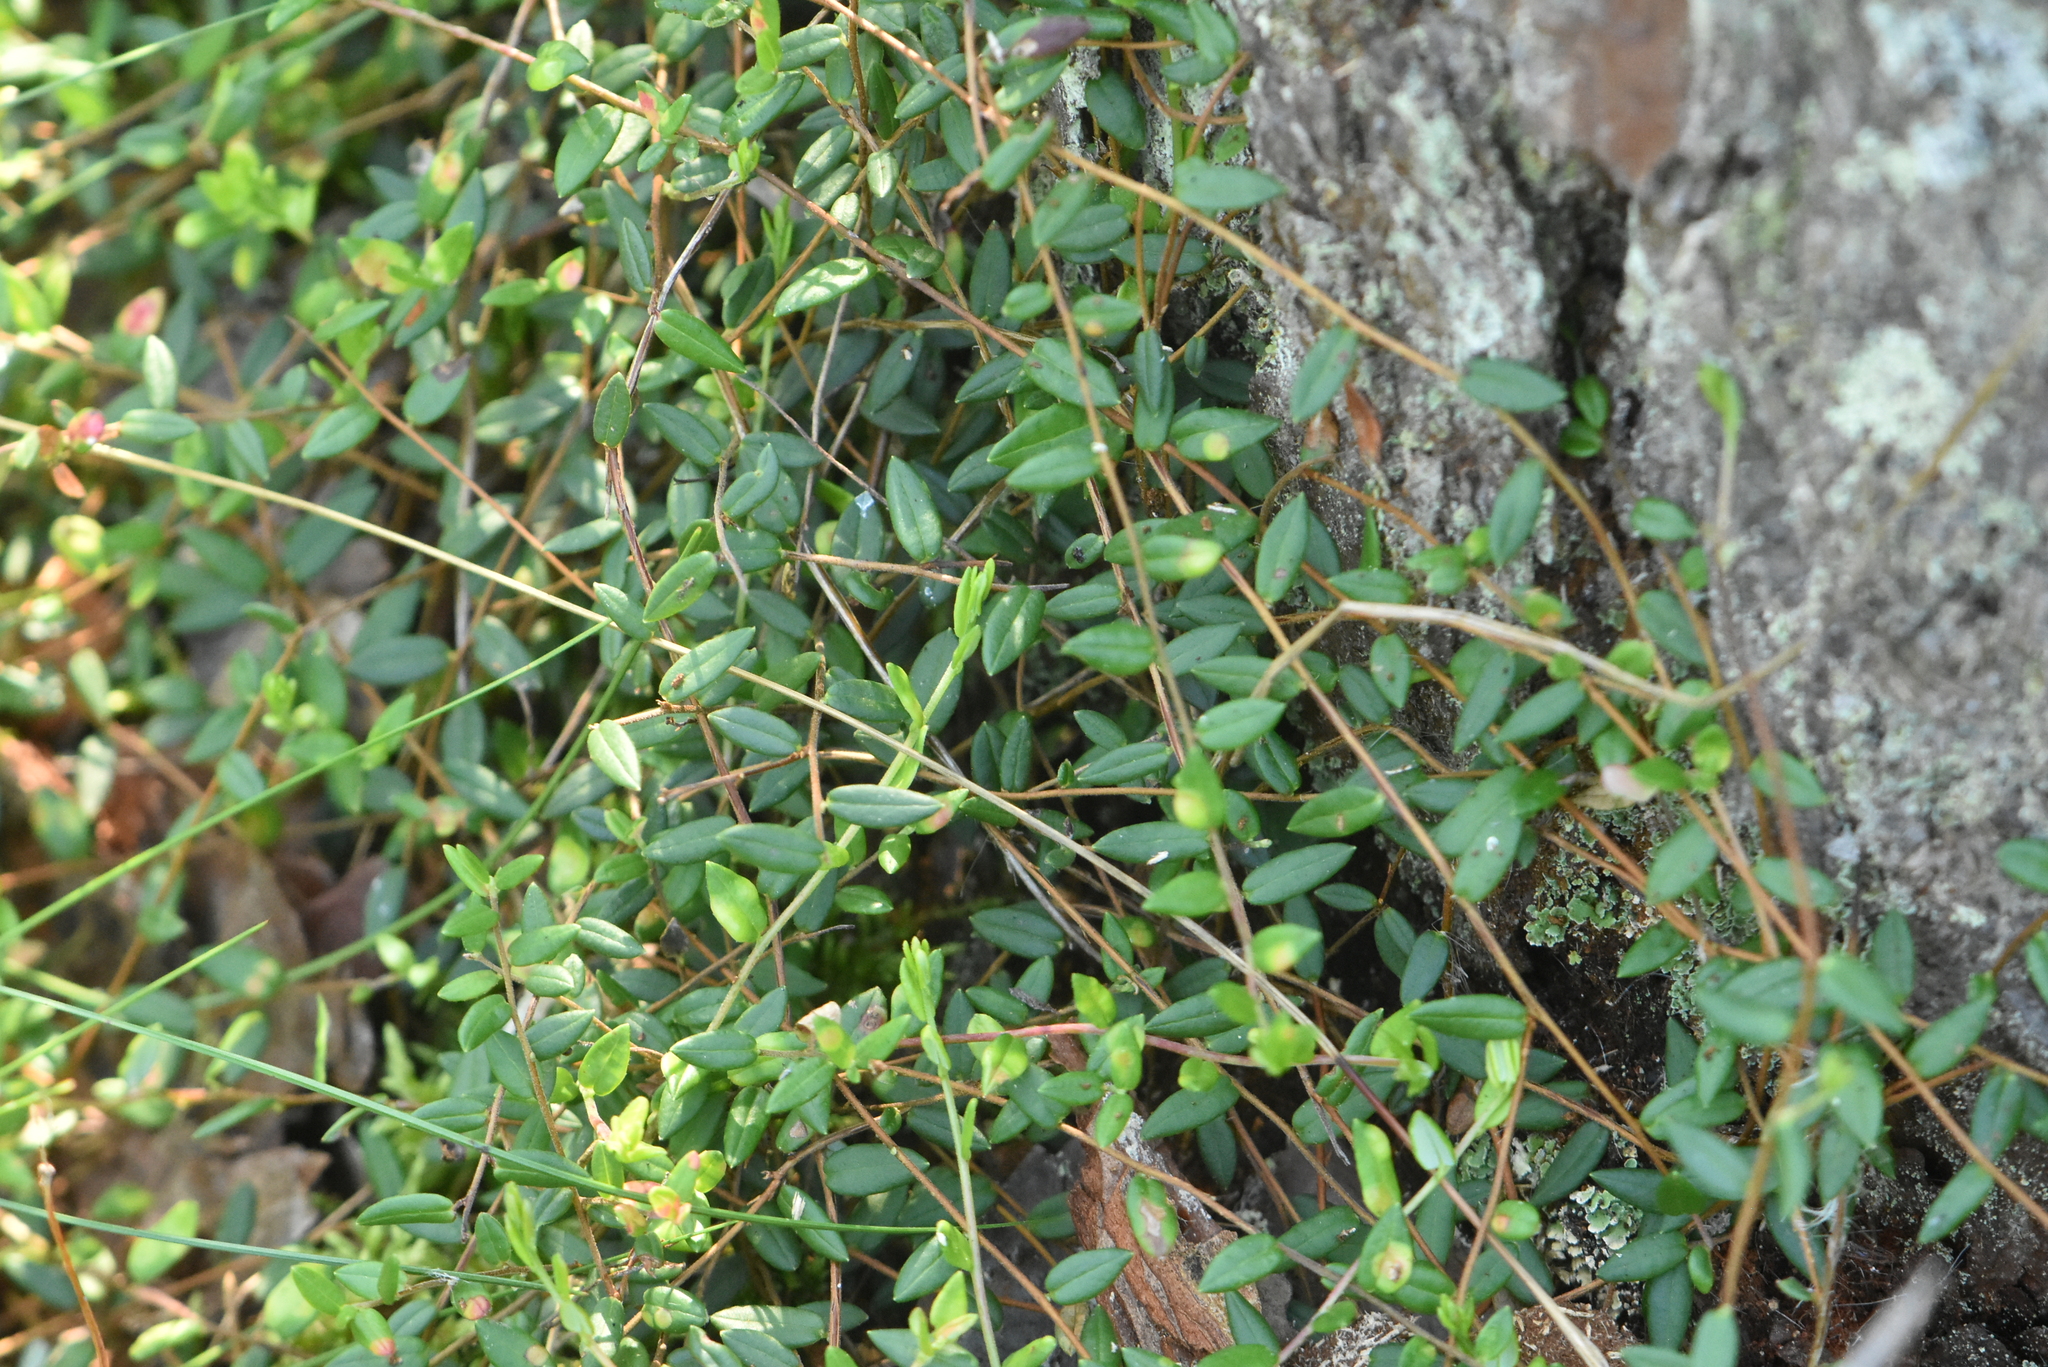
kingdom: Plantae
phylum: Tracheophyta
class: Magnoliopsida
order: Ericales
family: Ericaceae
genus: Vaccinium
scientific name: Vaccinium oxycoccos
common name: Cranberry
